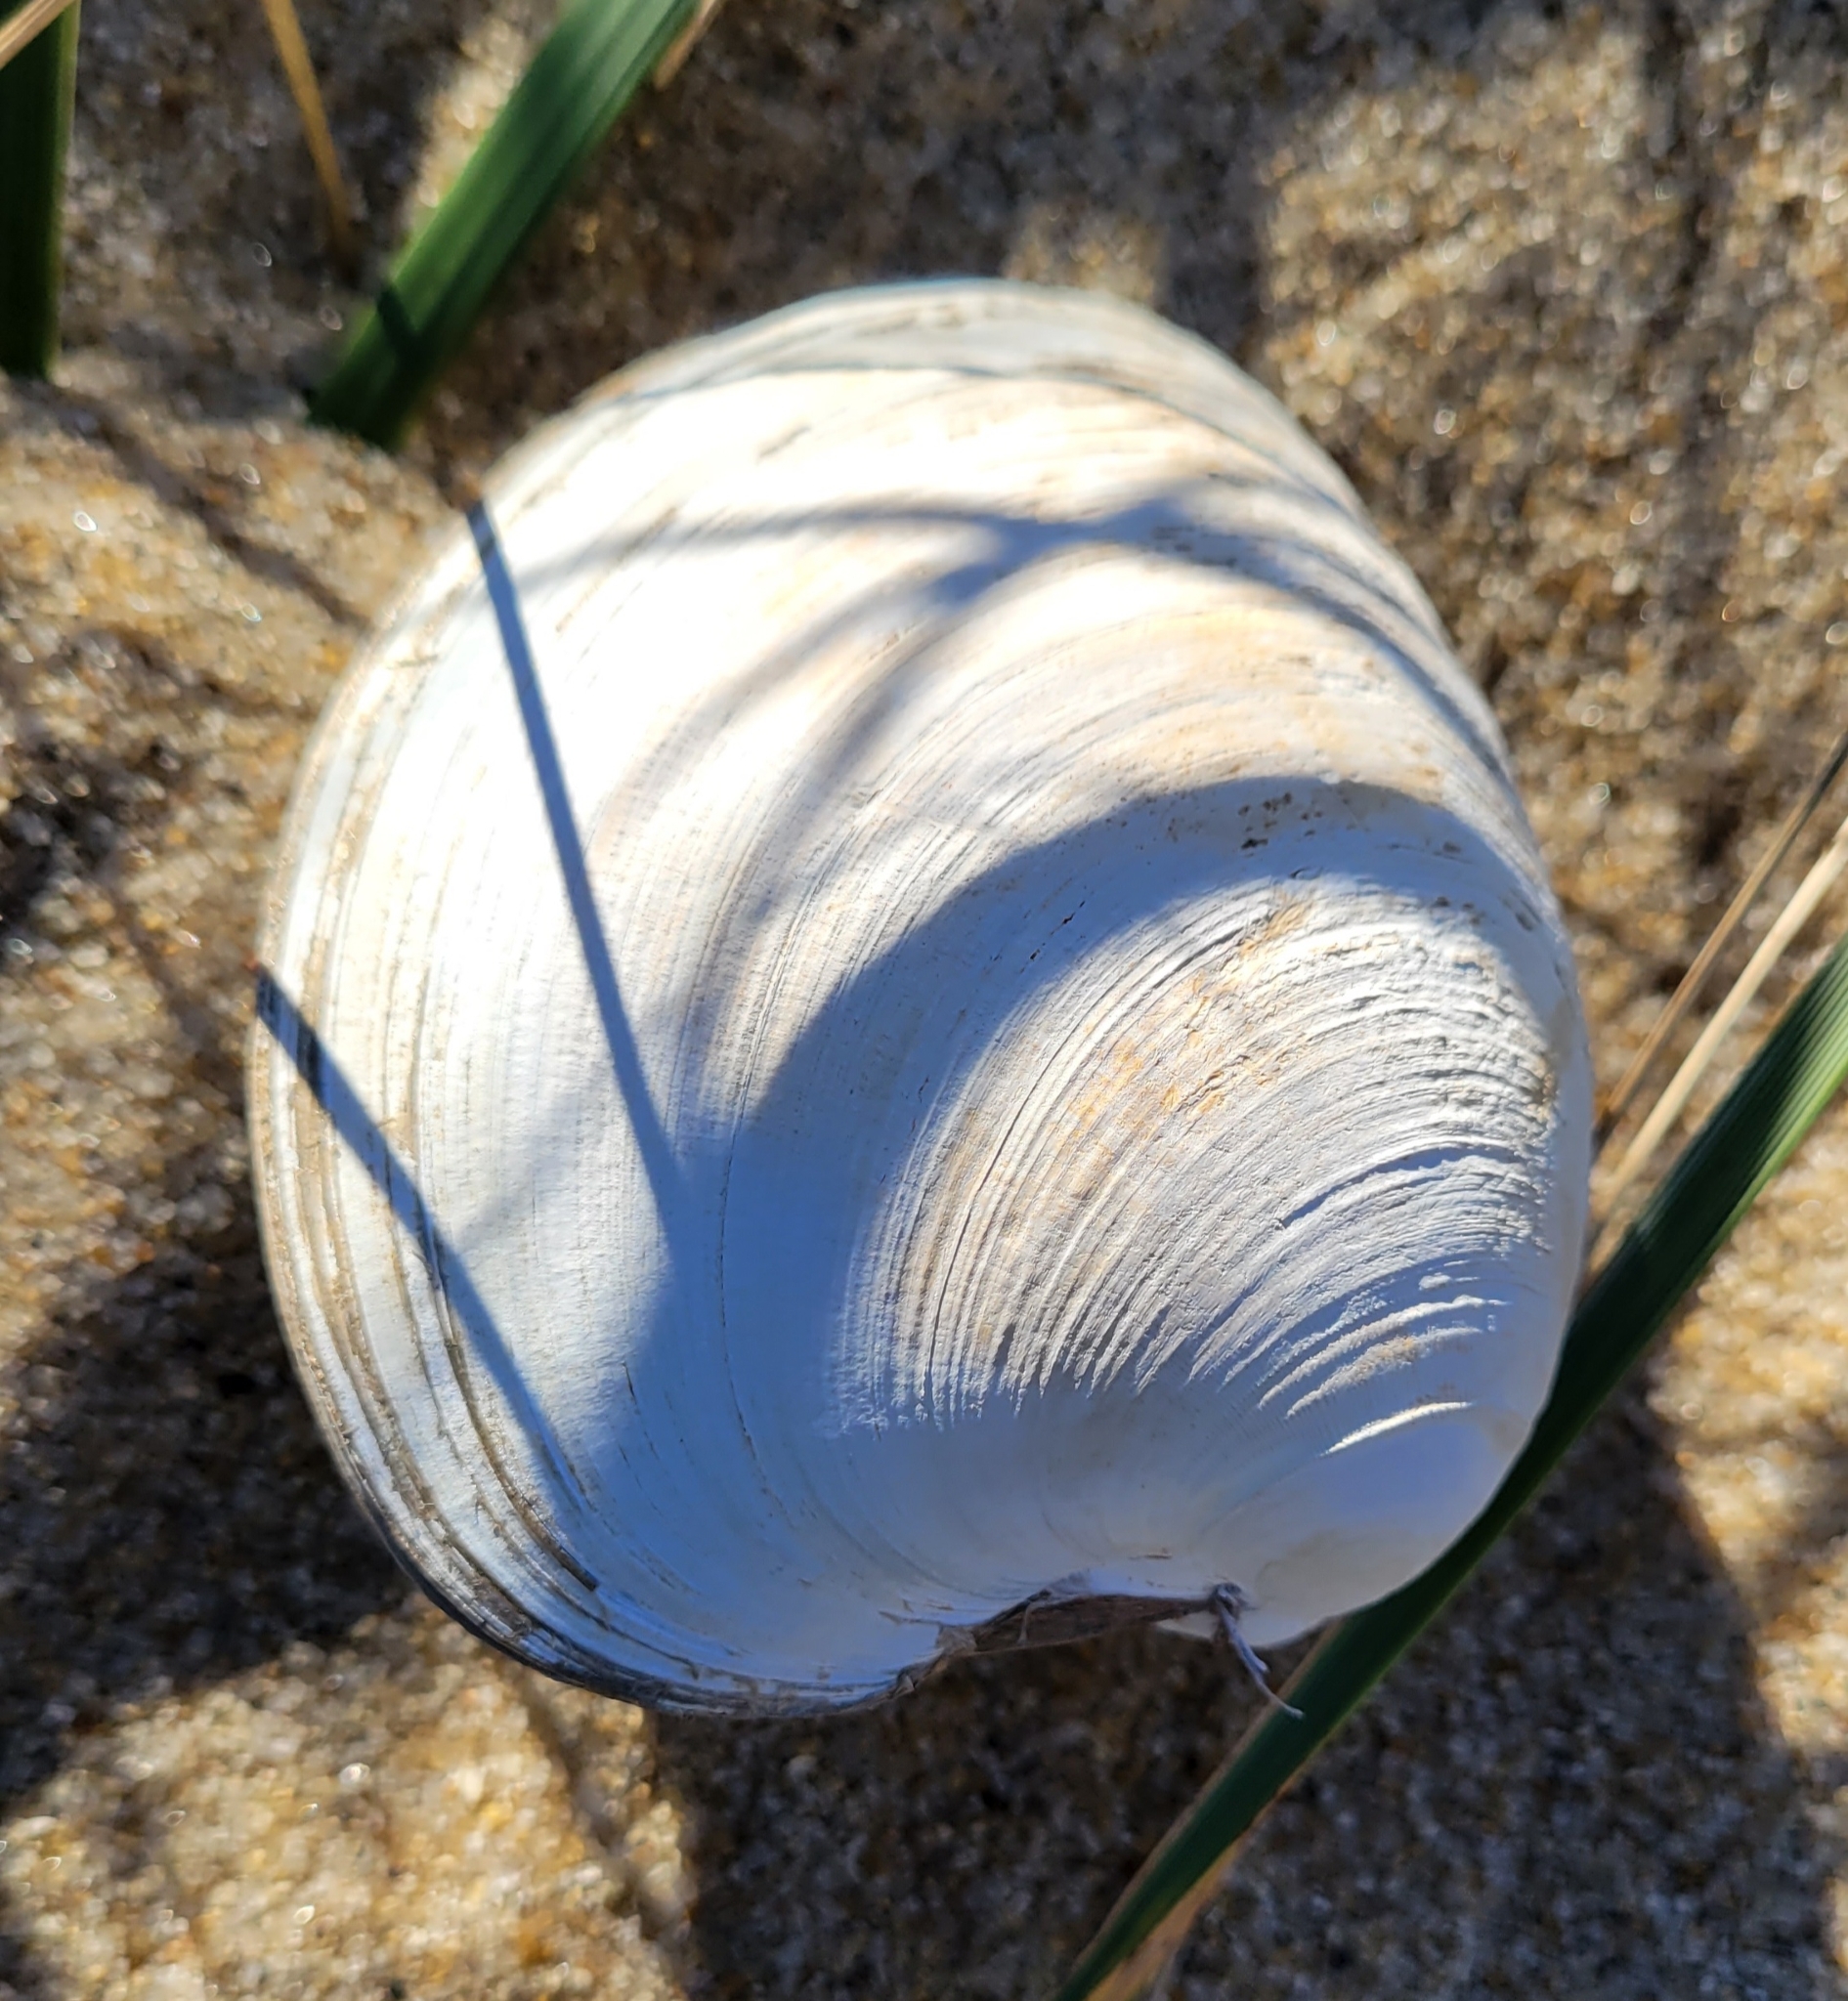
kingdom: Animalia
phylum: Mollusca
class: Bivalvia
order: Venerida
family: Veneridae
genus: Mercenaria
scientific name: Mercenaria mercenaria
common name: American hard-shelled clam
